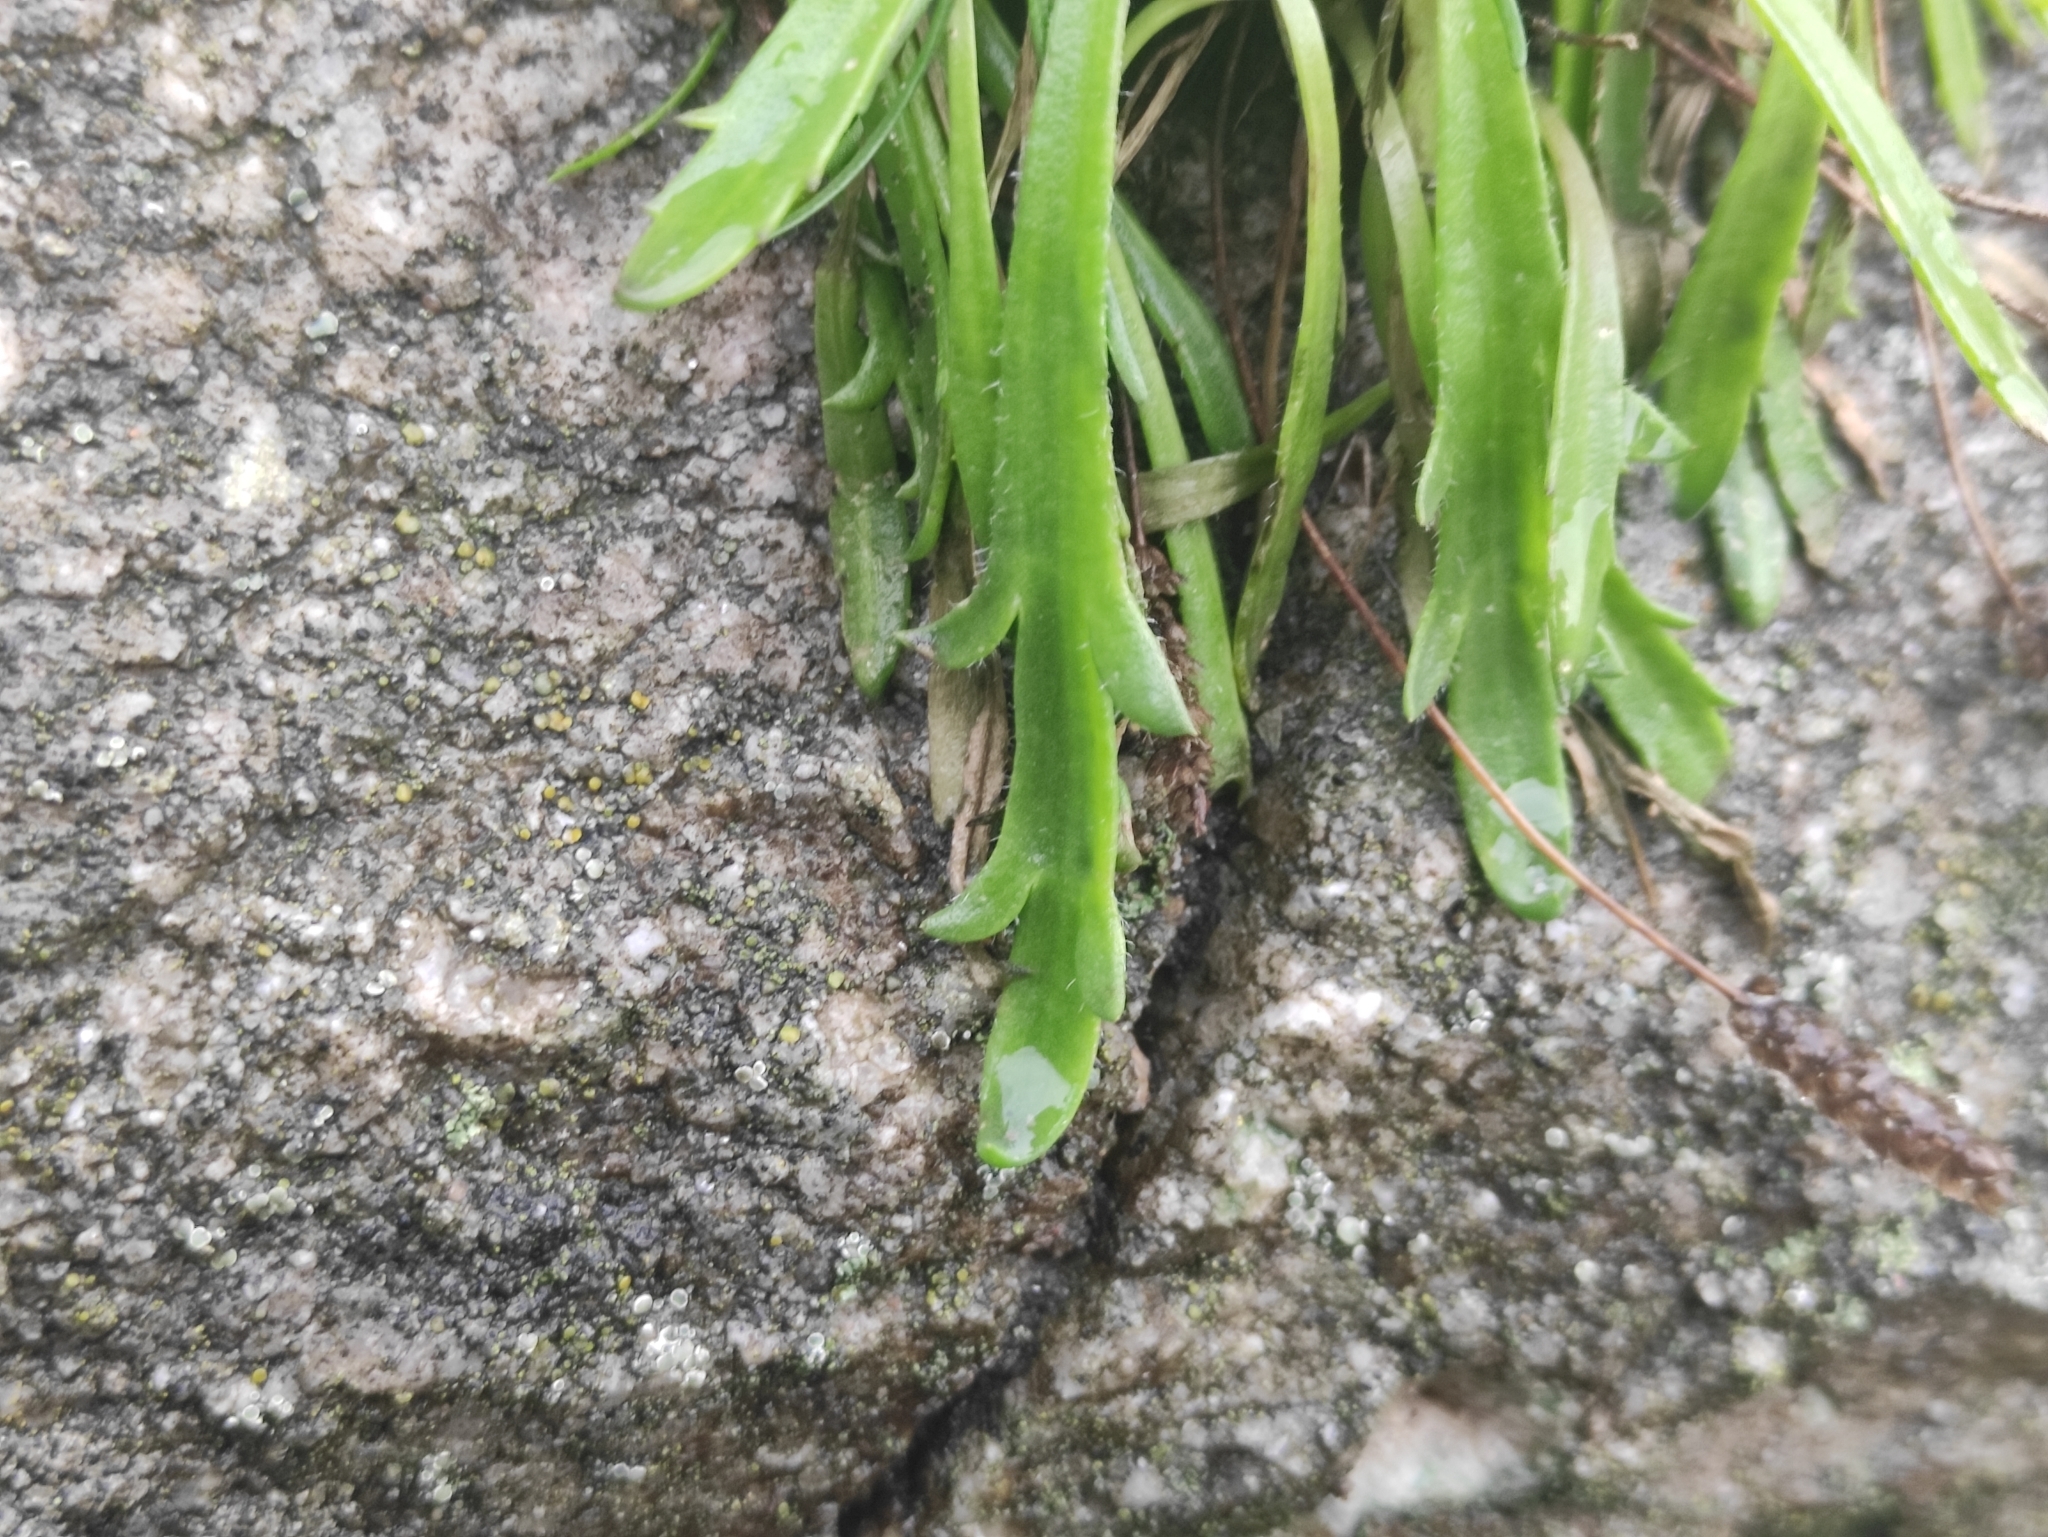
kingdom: Plantae
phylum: Tracheophyta
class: Magnoliopsida
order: Lamiales
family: Plantaginaceae
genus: Plantago
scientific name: Plantago coronopus
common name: Buck's-horn plantain
